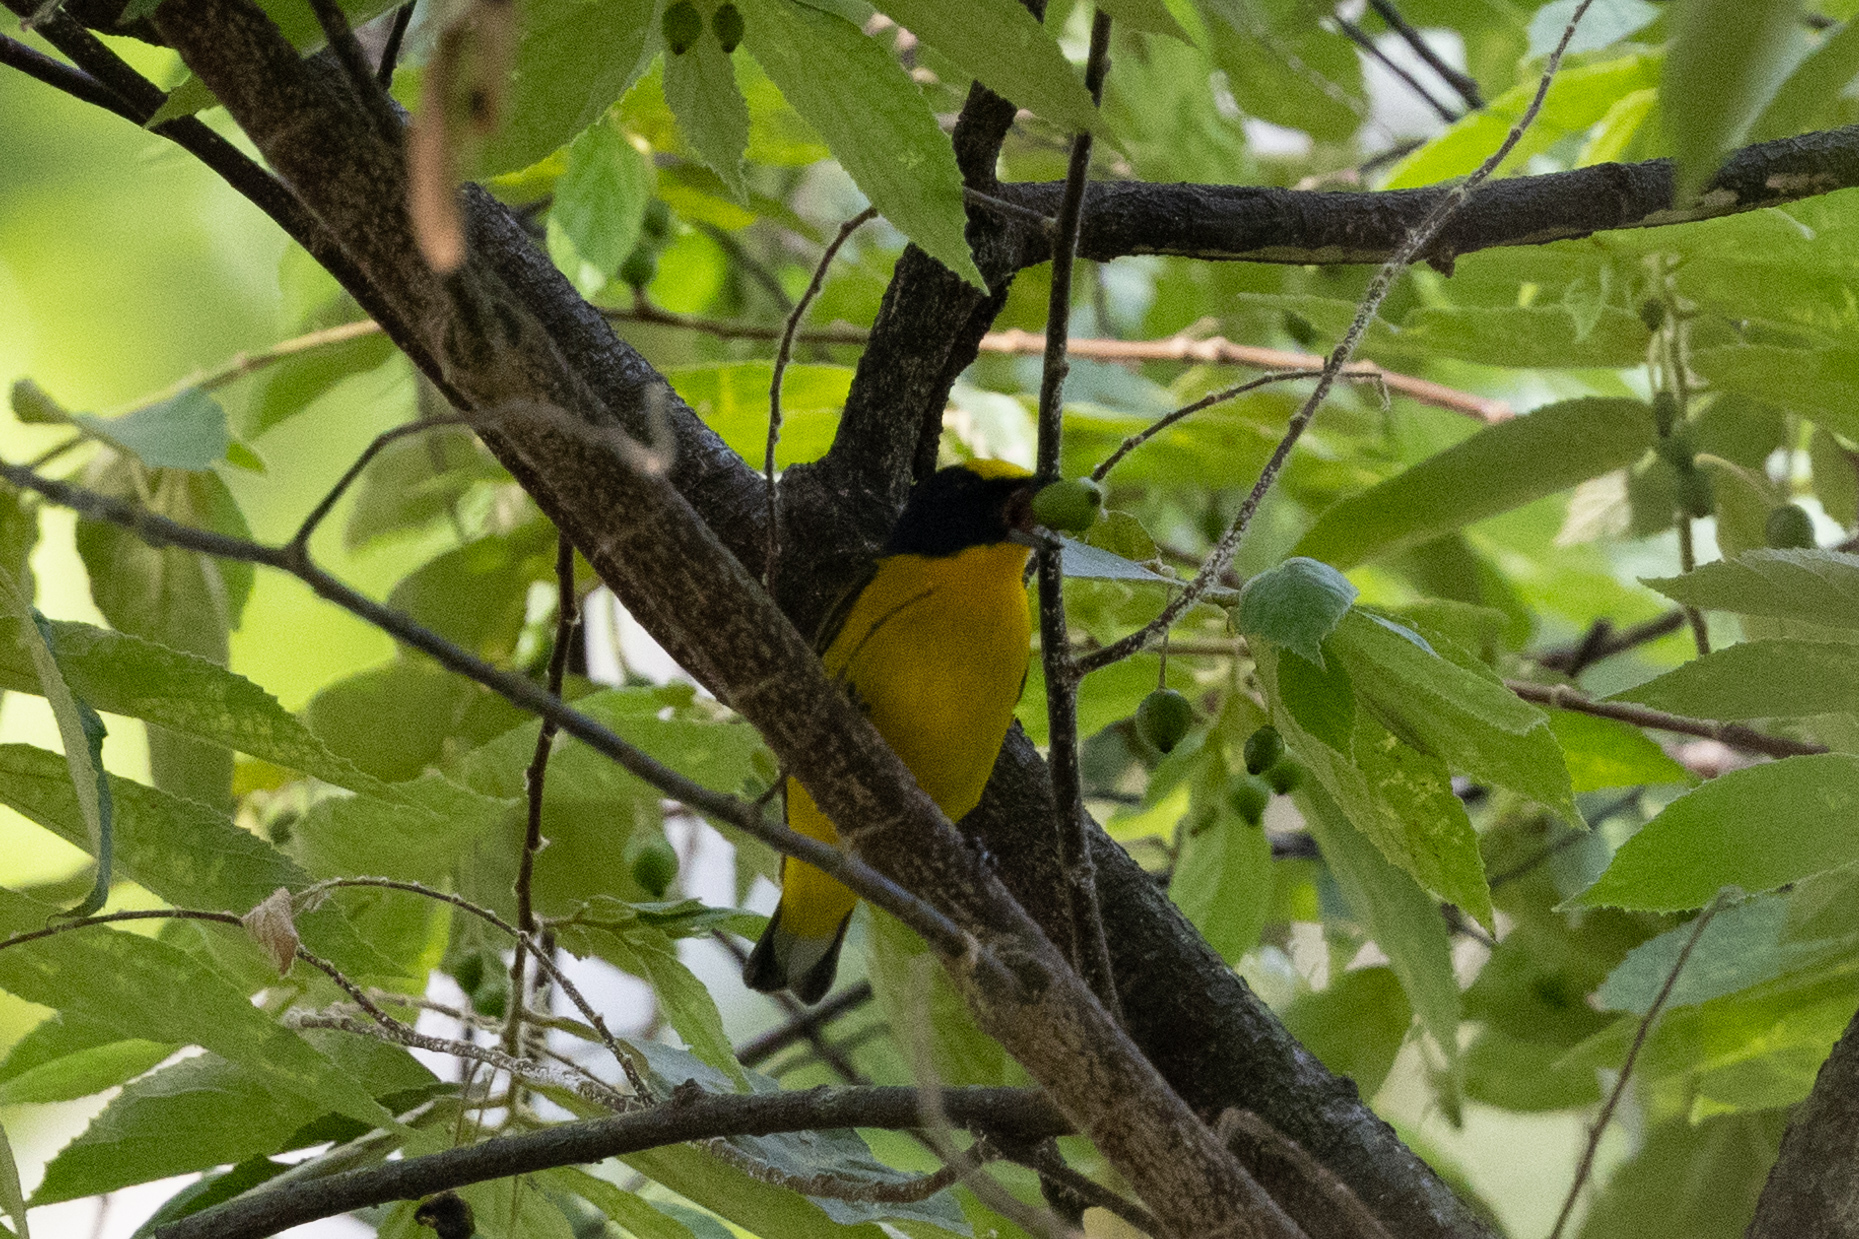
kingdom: Animalia
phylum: Chordata
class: Aves
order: Passeriformes
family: Fringillidae
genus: Euphonia
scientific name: Euphonia laniirostris
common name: Thick-billed euphonia
